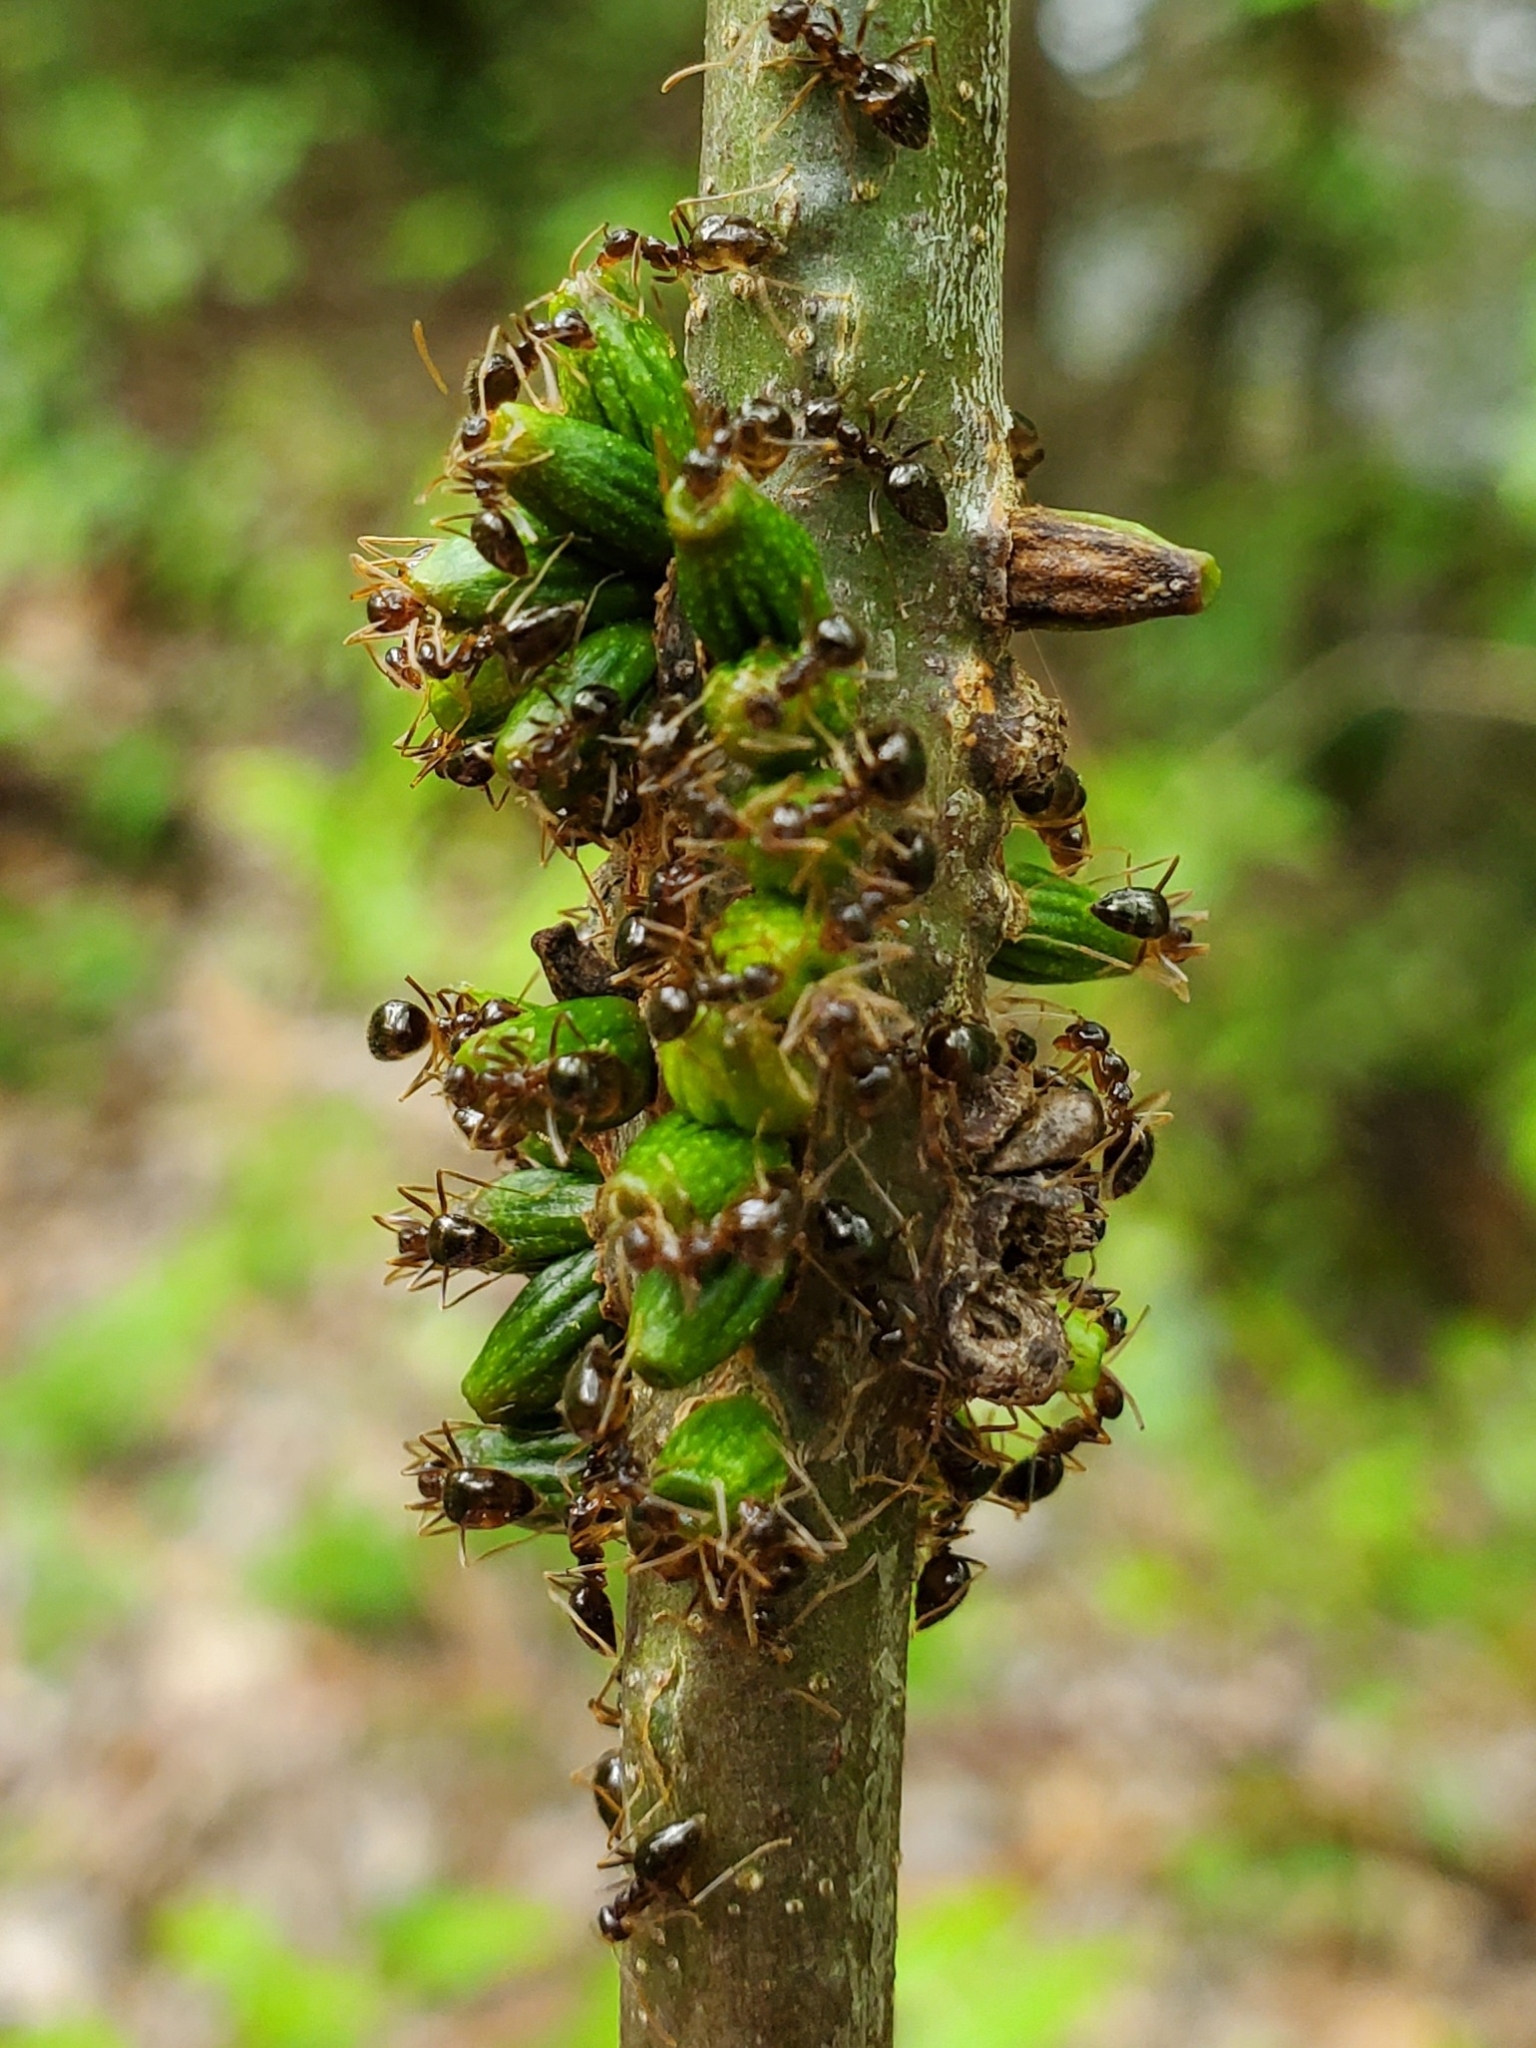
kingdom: Animalia
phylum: Arthropoda
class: Insecta
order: Hymenoptera
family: Cynipidae
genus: Callirhytis
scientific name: Callirhytis
